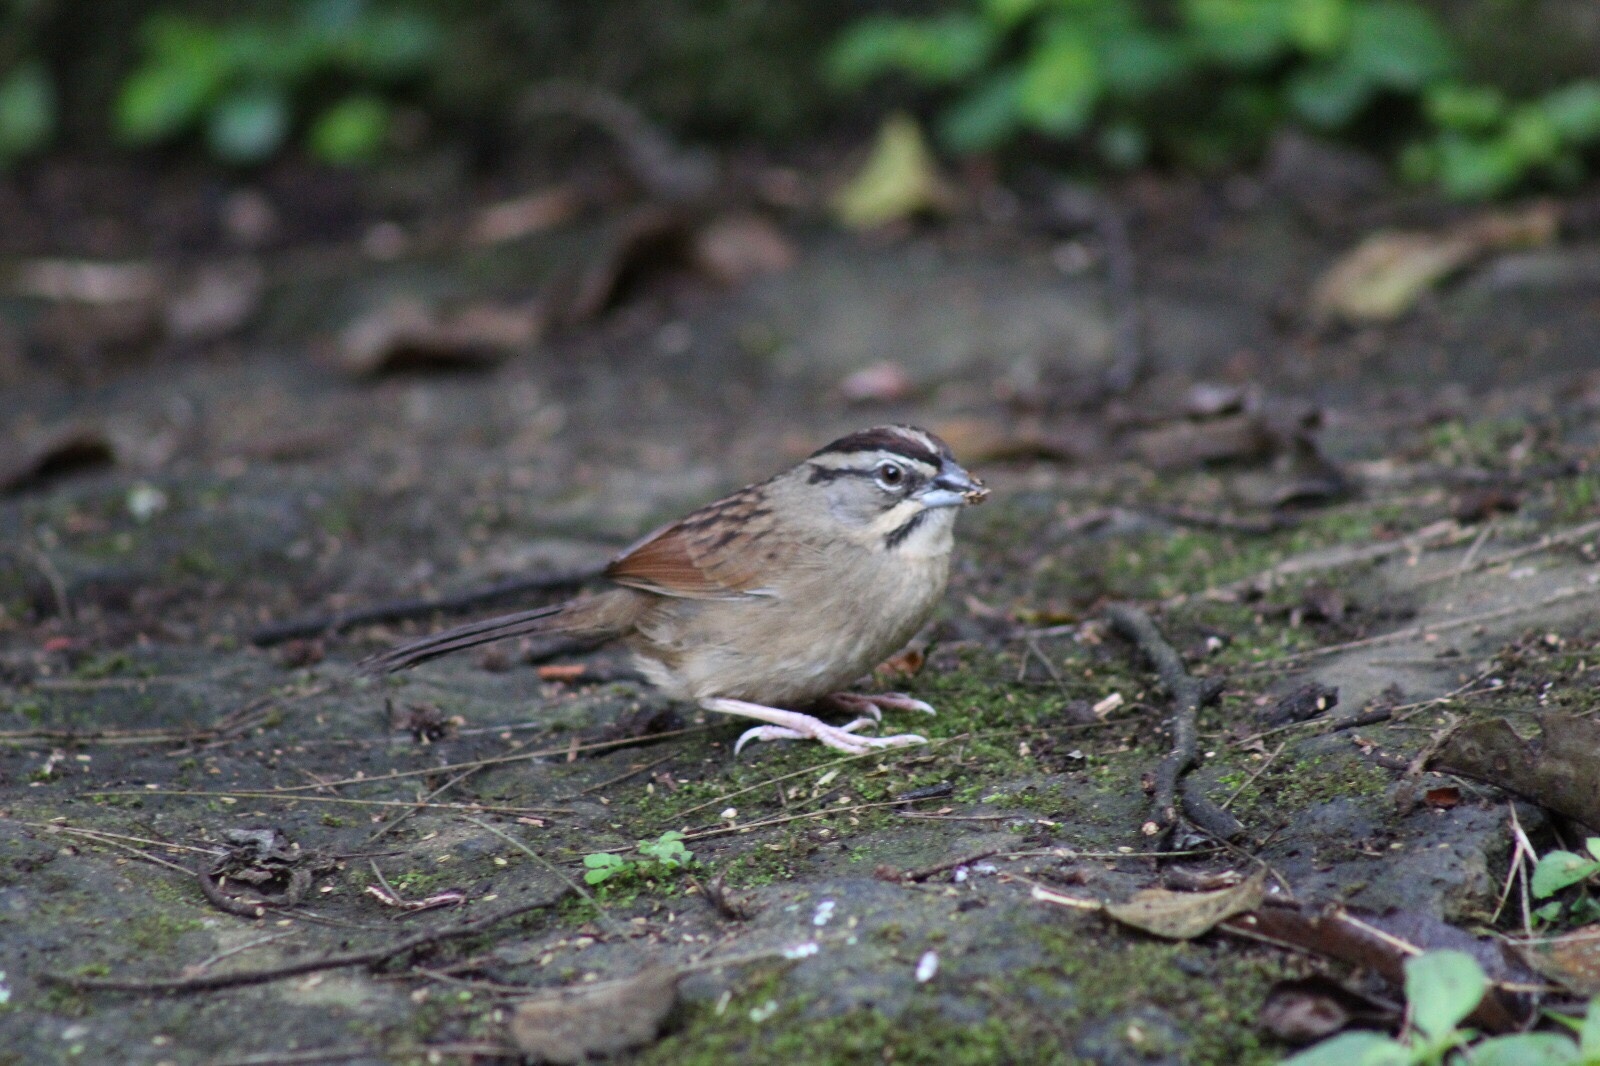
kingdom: Animalia
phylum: Chordata
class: Aves
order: Passeriformes
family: Passerellidae
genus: Aimophila
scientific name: Aimophila rufescens
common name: Rusty sparrow
